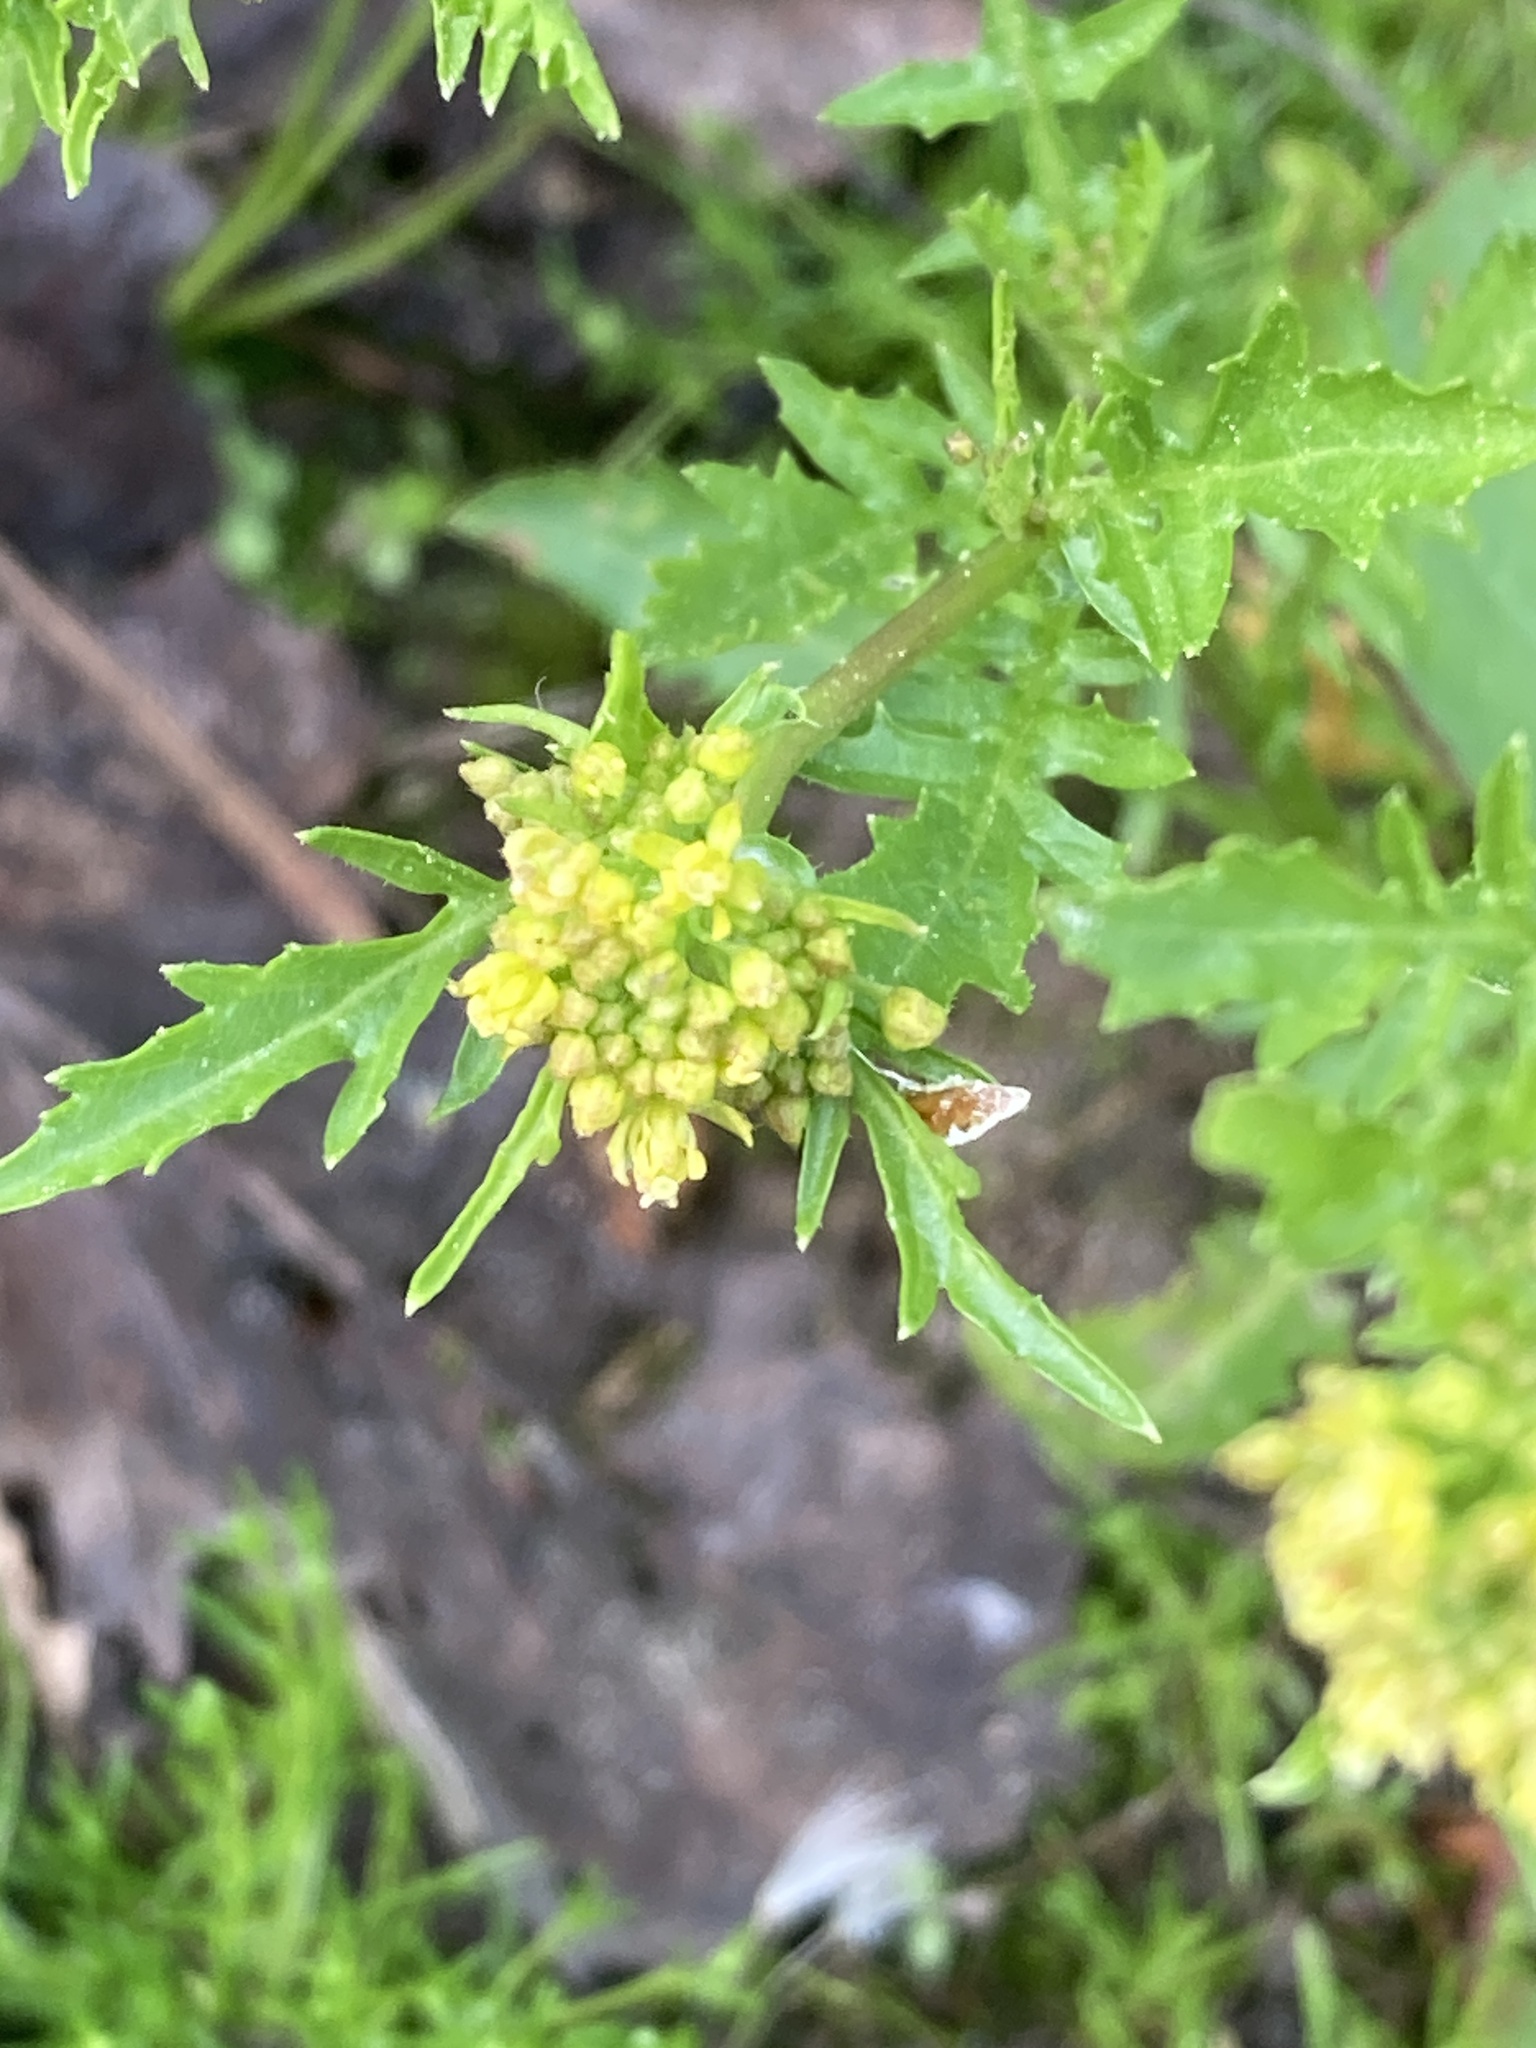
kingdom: Plantae
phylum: Tracheophyta
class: Magnoliopsida
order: Brassicales
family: Brassicaceae
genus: Rorippa
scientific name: Rorippa palustris
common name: Marsh yellow-cress
